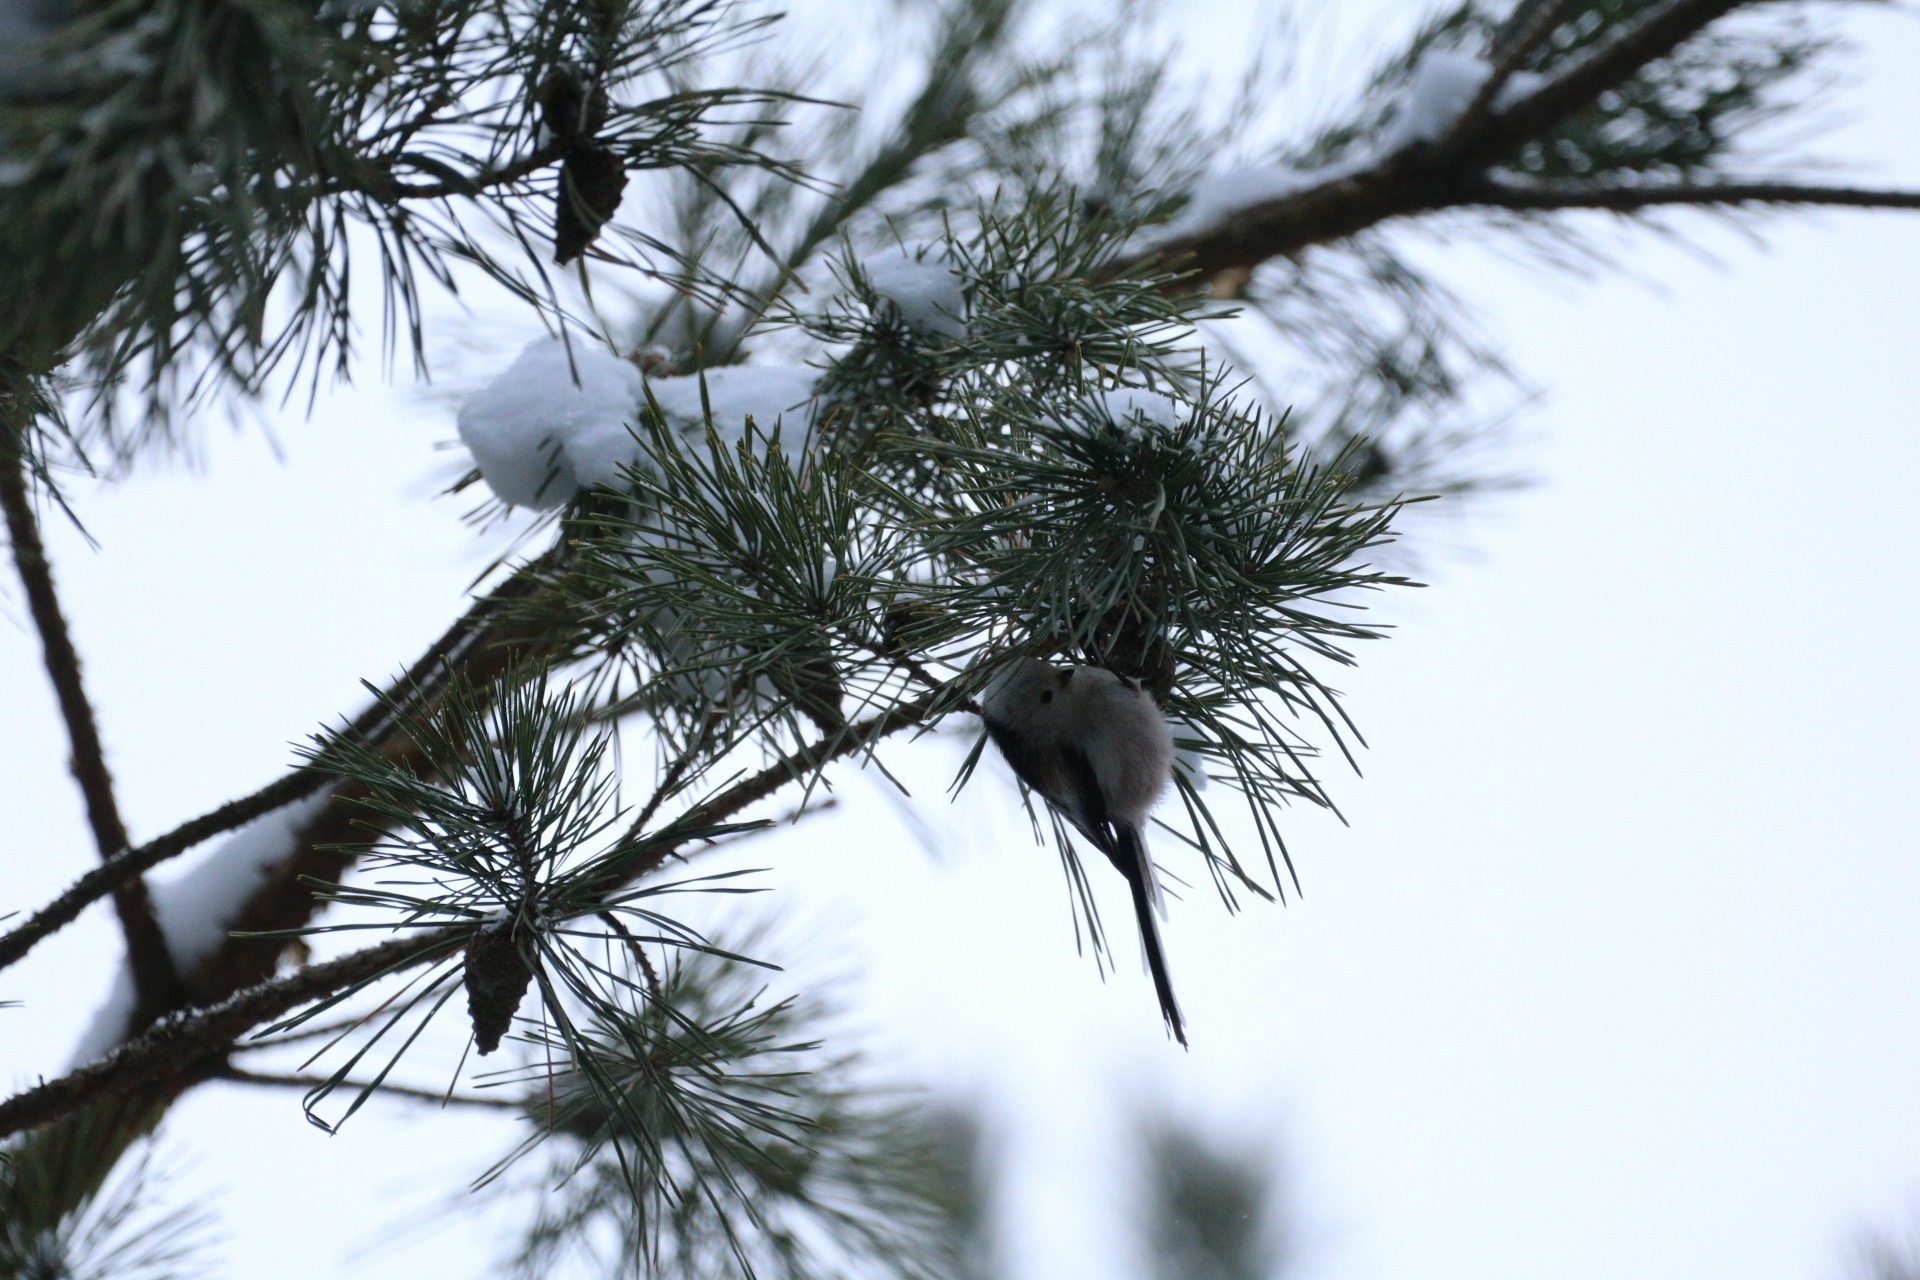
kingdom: Animalia
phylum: Chordata
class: Aves
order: Passeriformes
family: Aegithalidae
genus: Aegithalos
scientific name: Aegithalos caudatus
